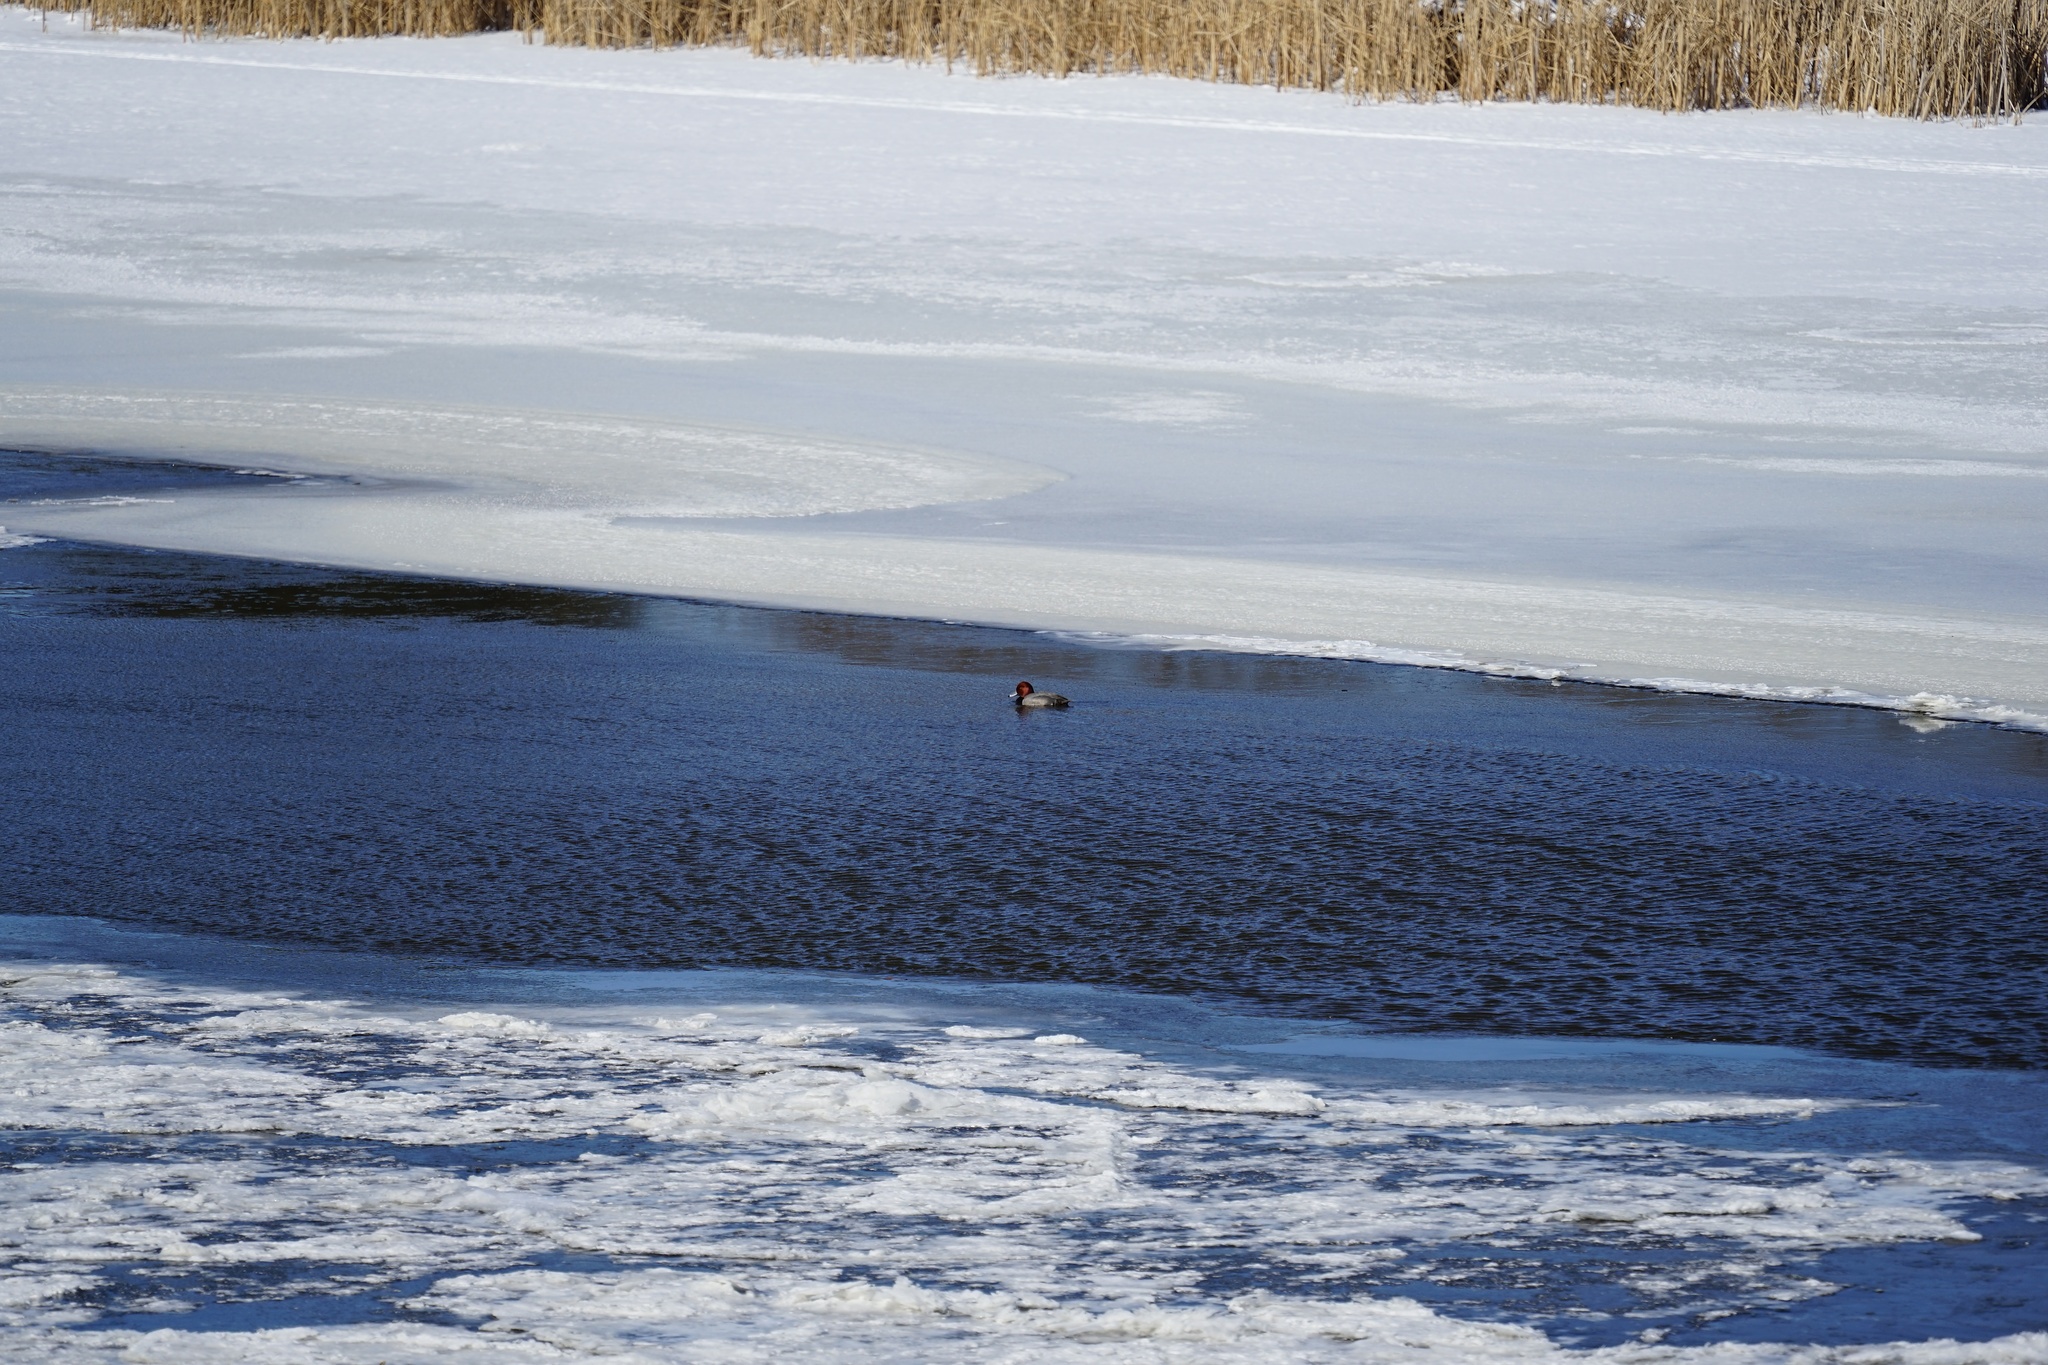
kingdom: Animalia
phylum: Chordata
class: Aves
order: Anseriformes
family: Anatidae
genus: Aythya
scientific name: Aythya americana
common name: Redhead
